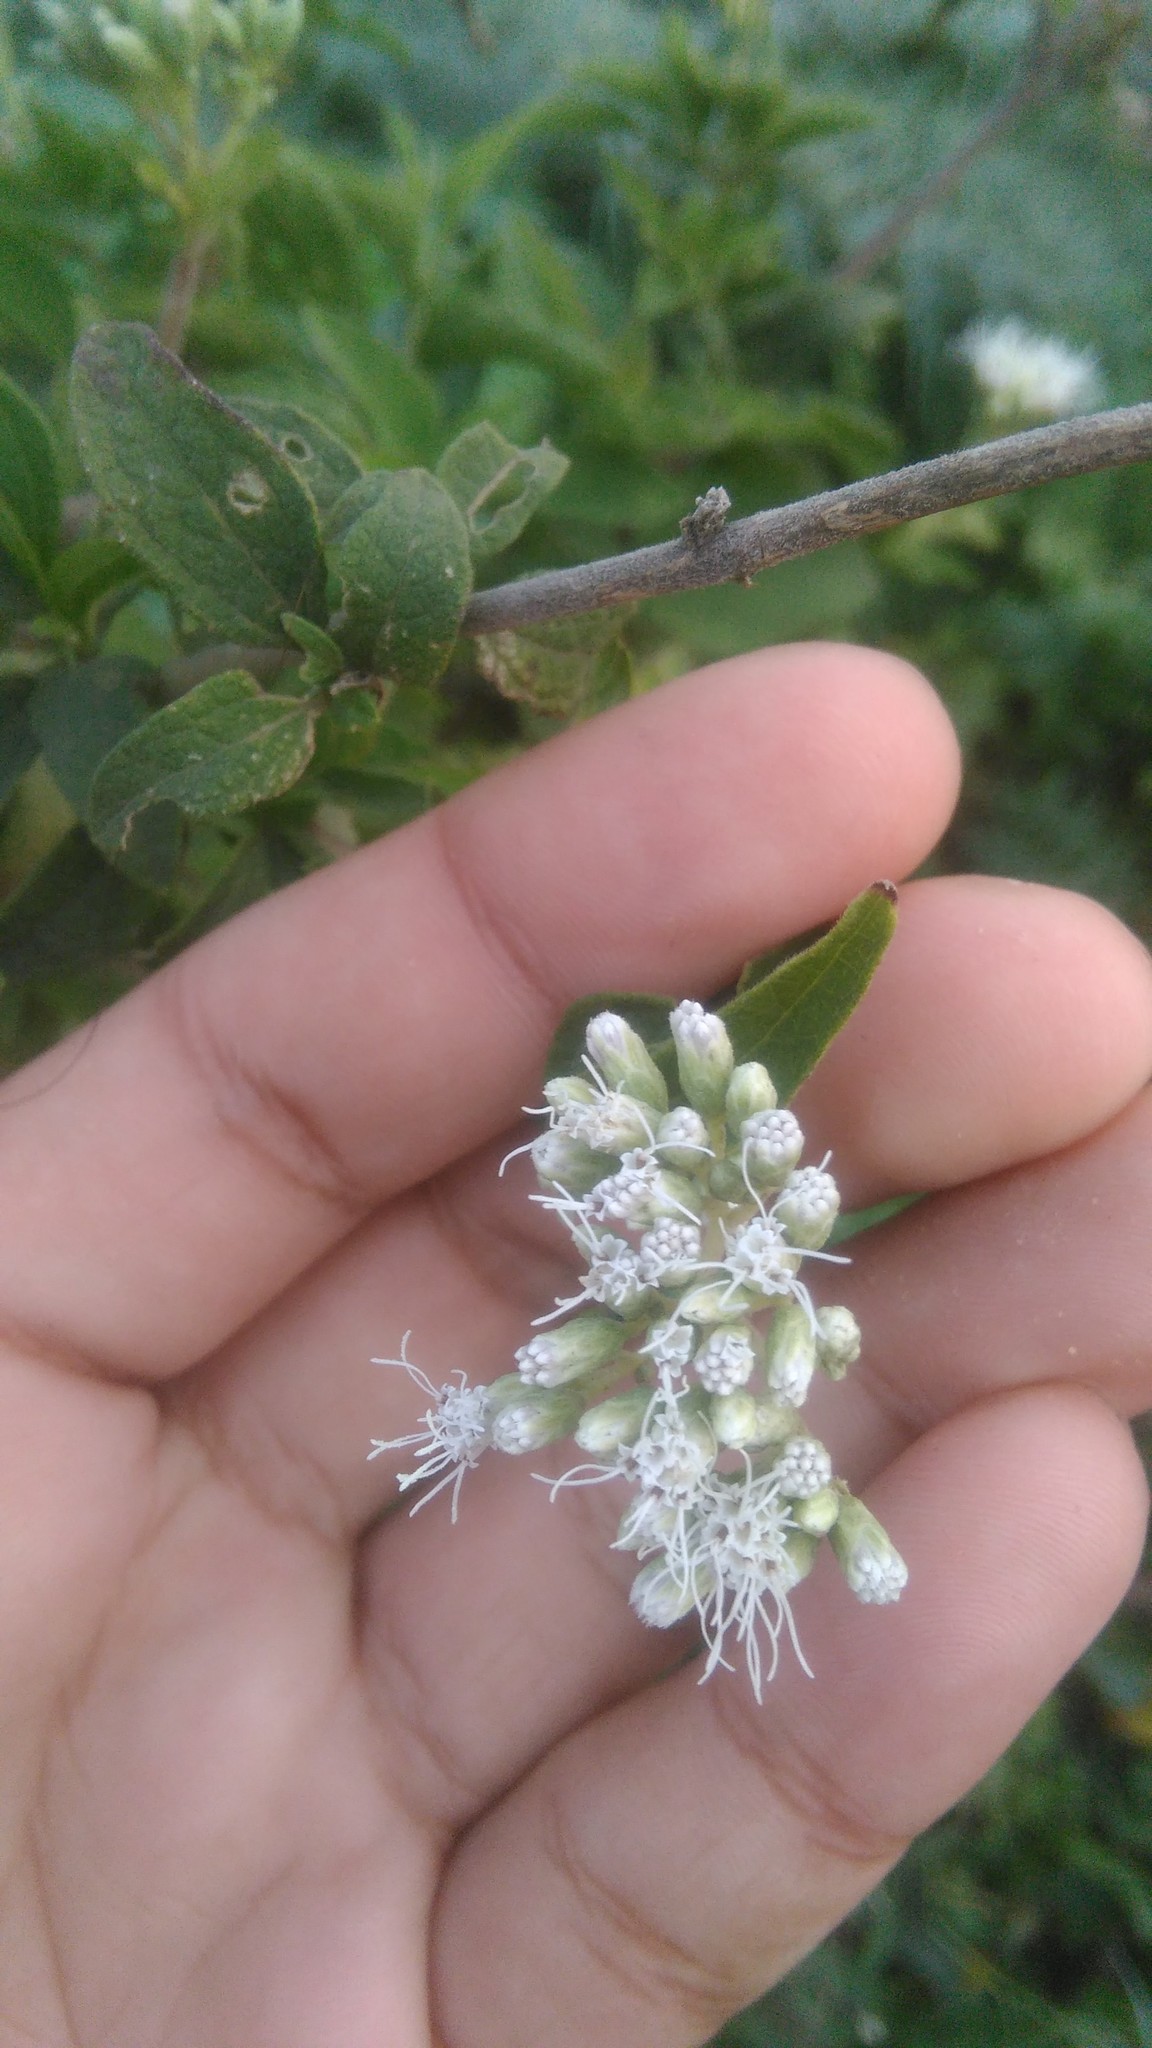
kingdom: Plantae
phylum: Tracheophyta
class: Magnoliopsida
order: Asterales
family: Asteraceae
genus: Austroeupatorium
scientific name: Austroeupatorium inulifolium
